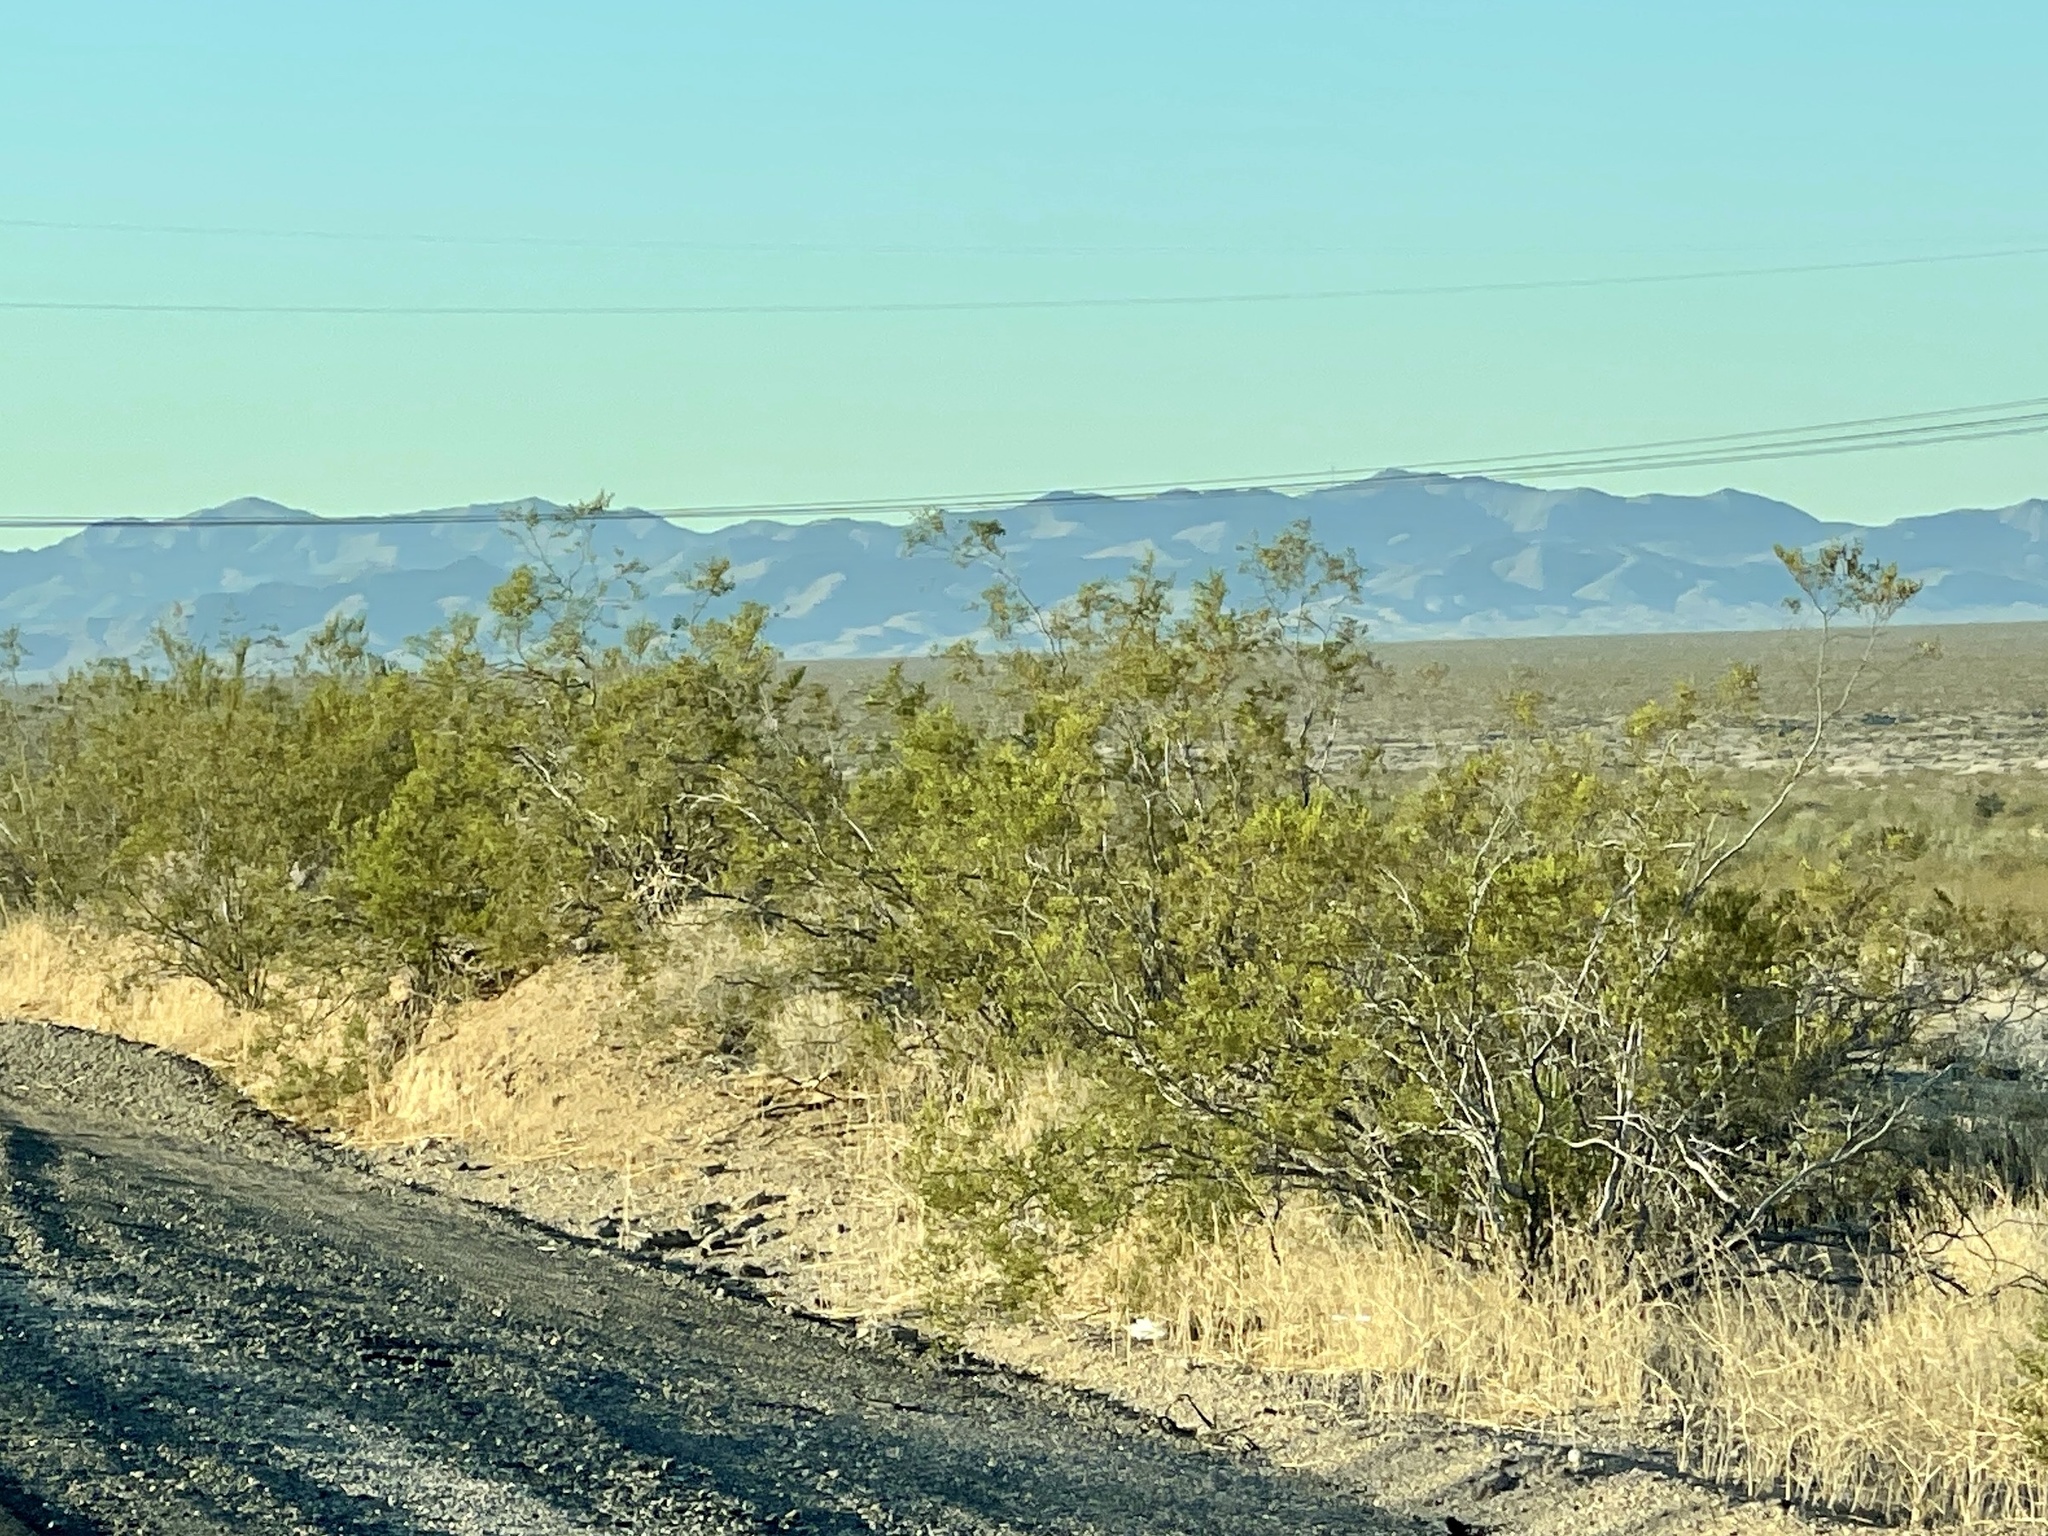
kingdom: Plantae
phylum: Tracheophyta
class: Magnoliopsida
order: Zygophyllales
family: Zygophyllaceae
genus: Larrea
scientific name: Larrea tridentata
